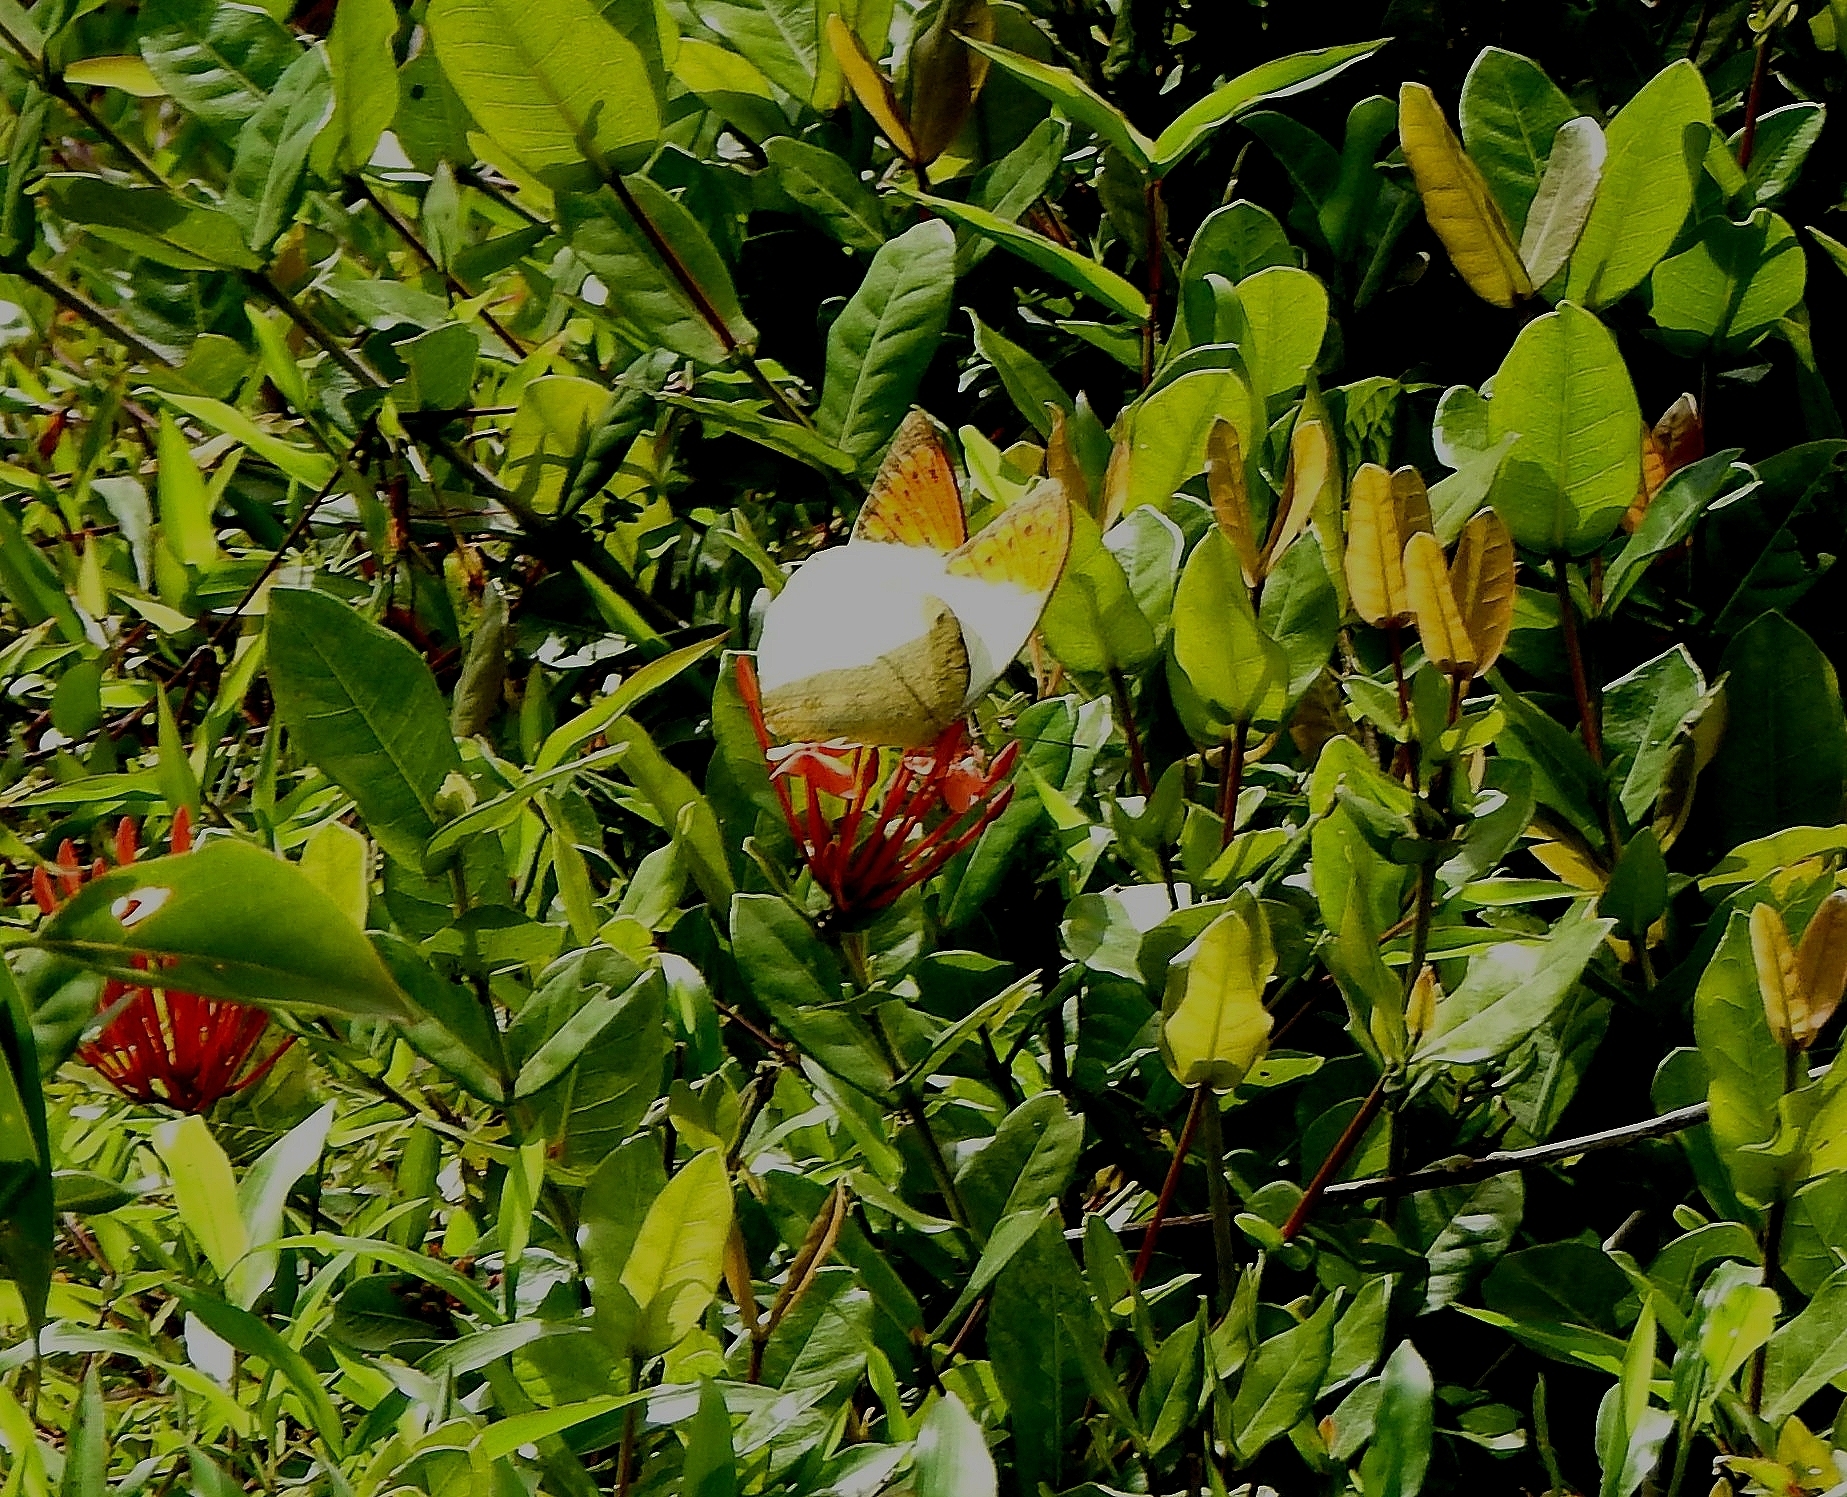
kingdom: Animalia
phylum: Arthropoda
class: Insecta
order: Lepidoptera
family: Pieridae
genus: Hebomoia
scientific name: Hebomoia glaucippe
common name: Great orange tip
